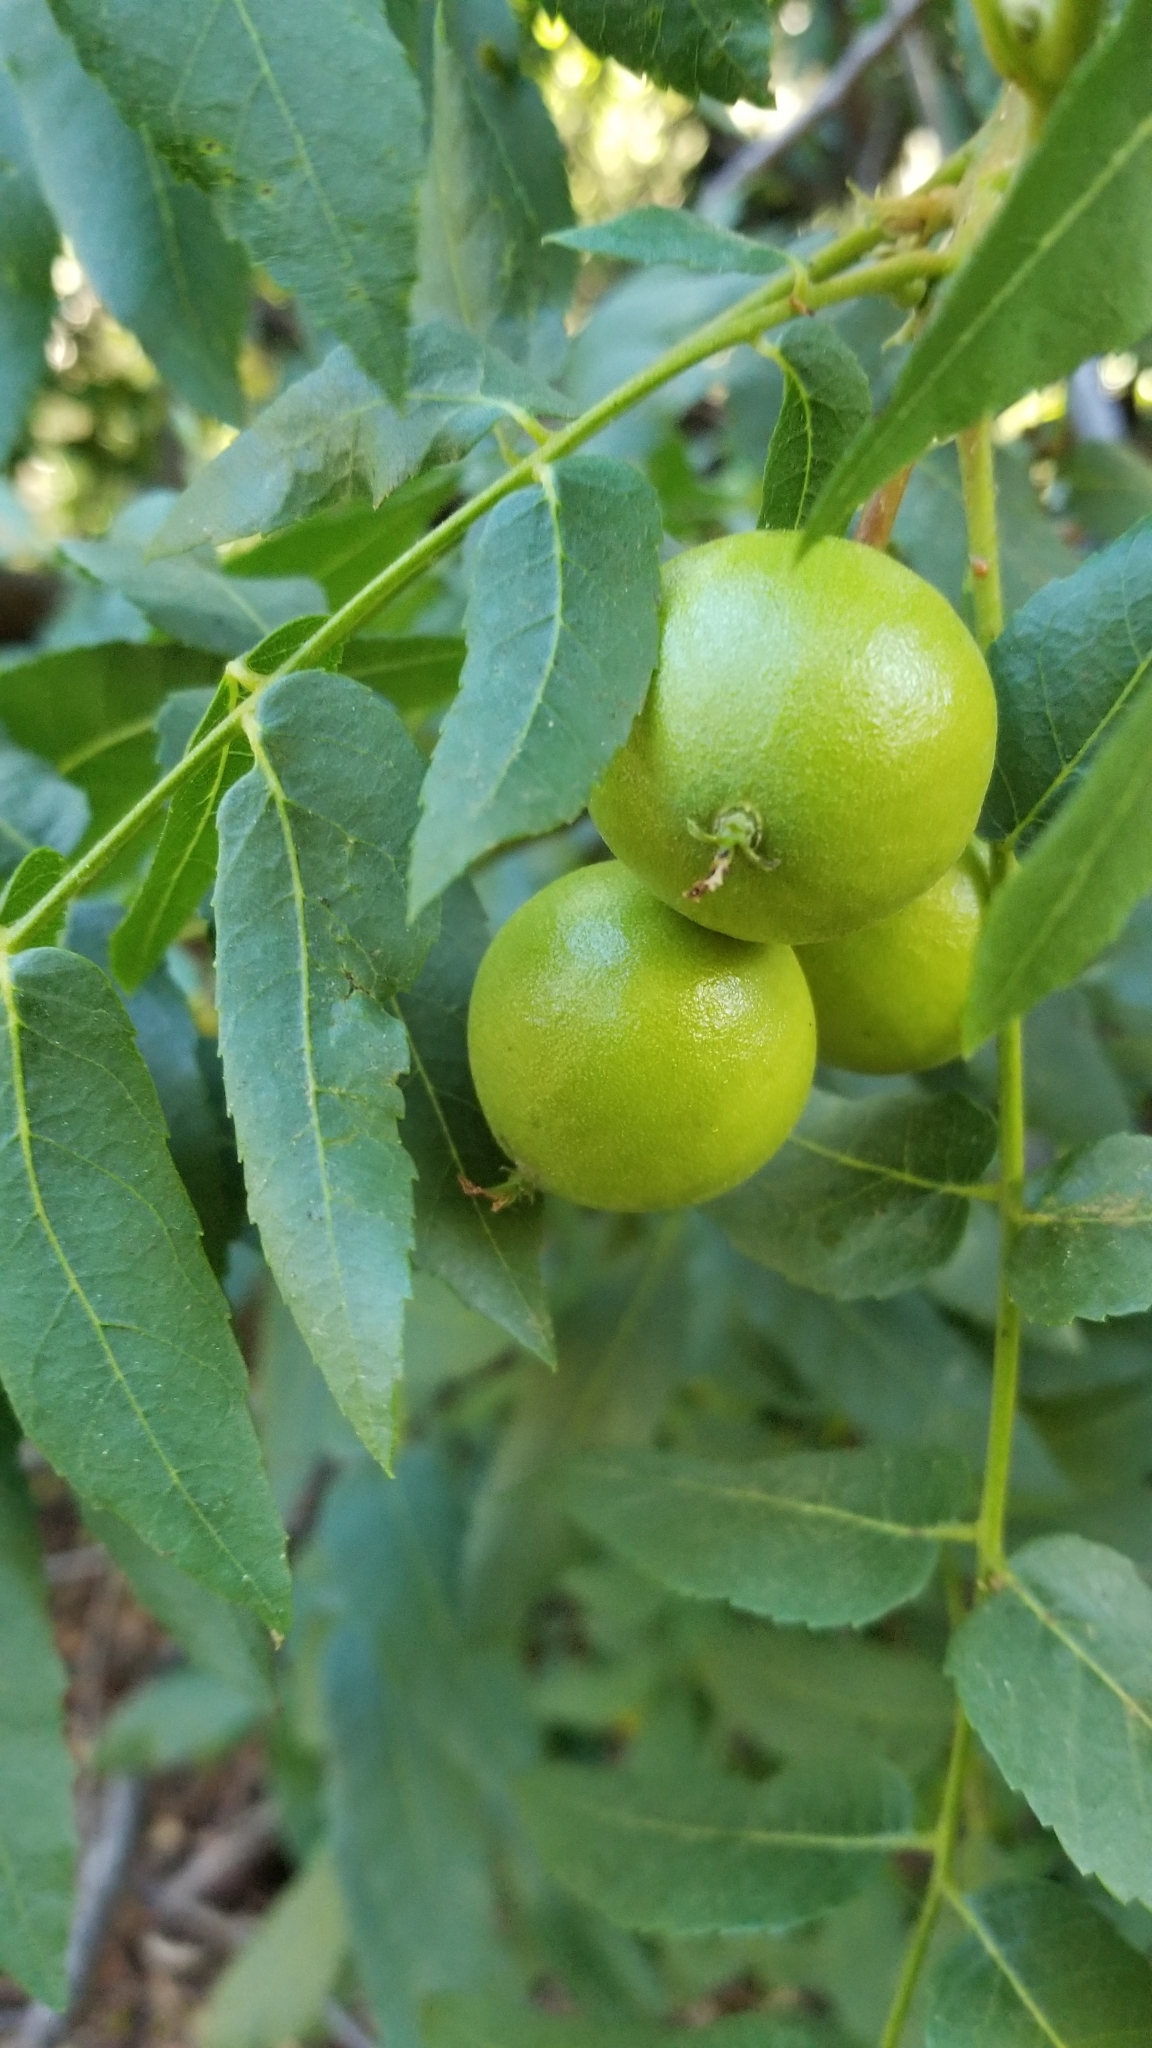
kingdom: Plantae
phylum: Tracheophyta
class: Magnoliopsida
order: Fagales
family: Juglandaceae
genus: Juglans
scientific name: Juglans californica
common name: Southern california black walnut
